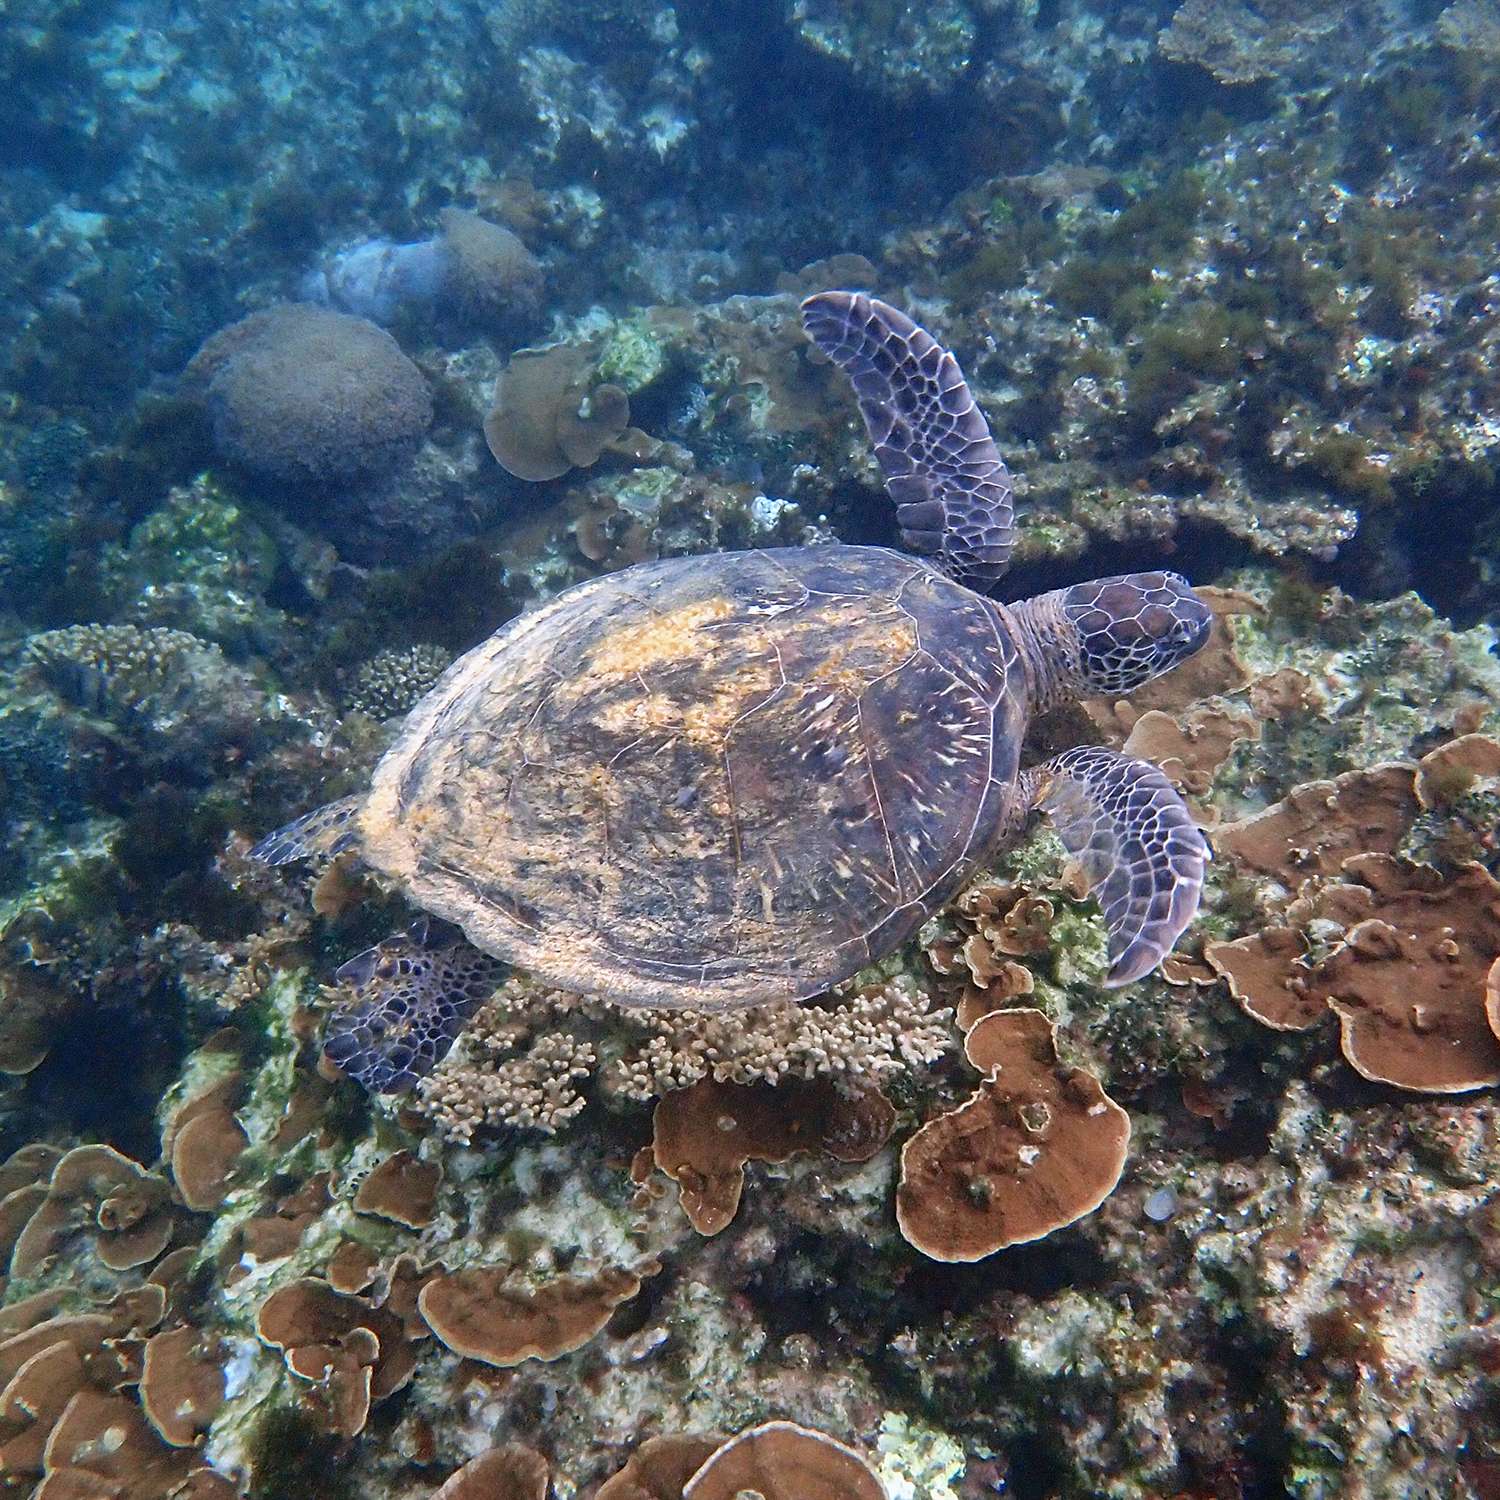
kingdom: Animalia
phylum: Chordata
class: Testudines
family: Cheloniidae
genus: Chelonia
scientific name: Chelonia mydas
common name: Green turtle
